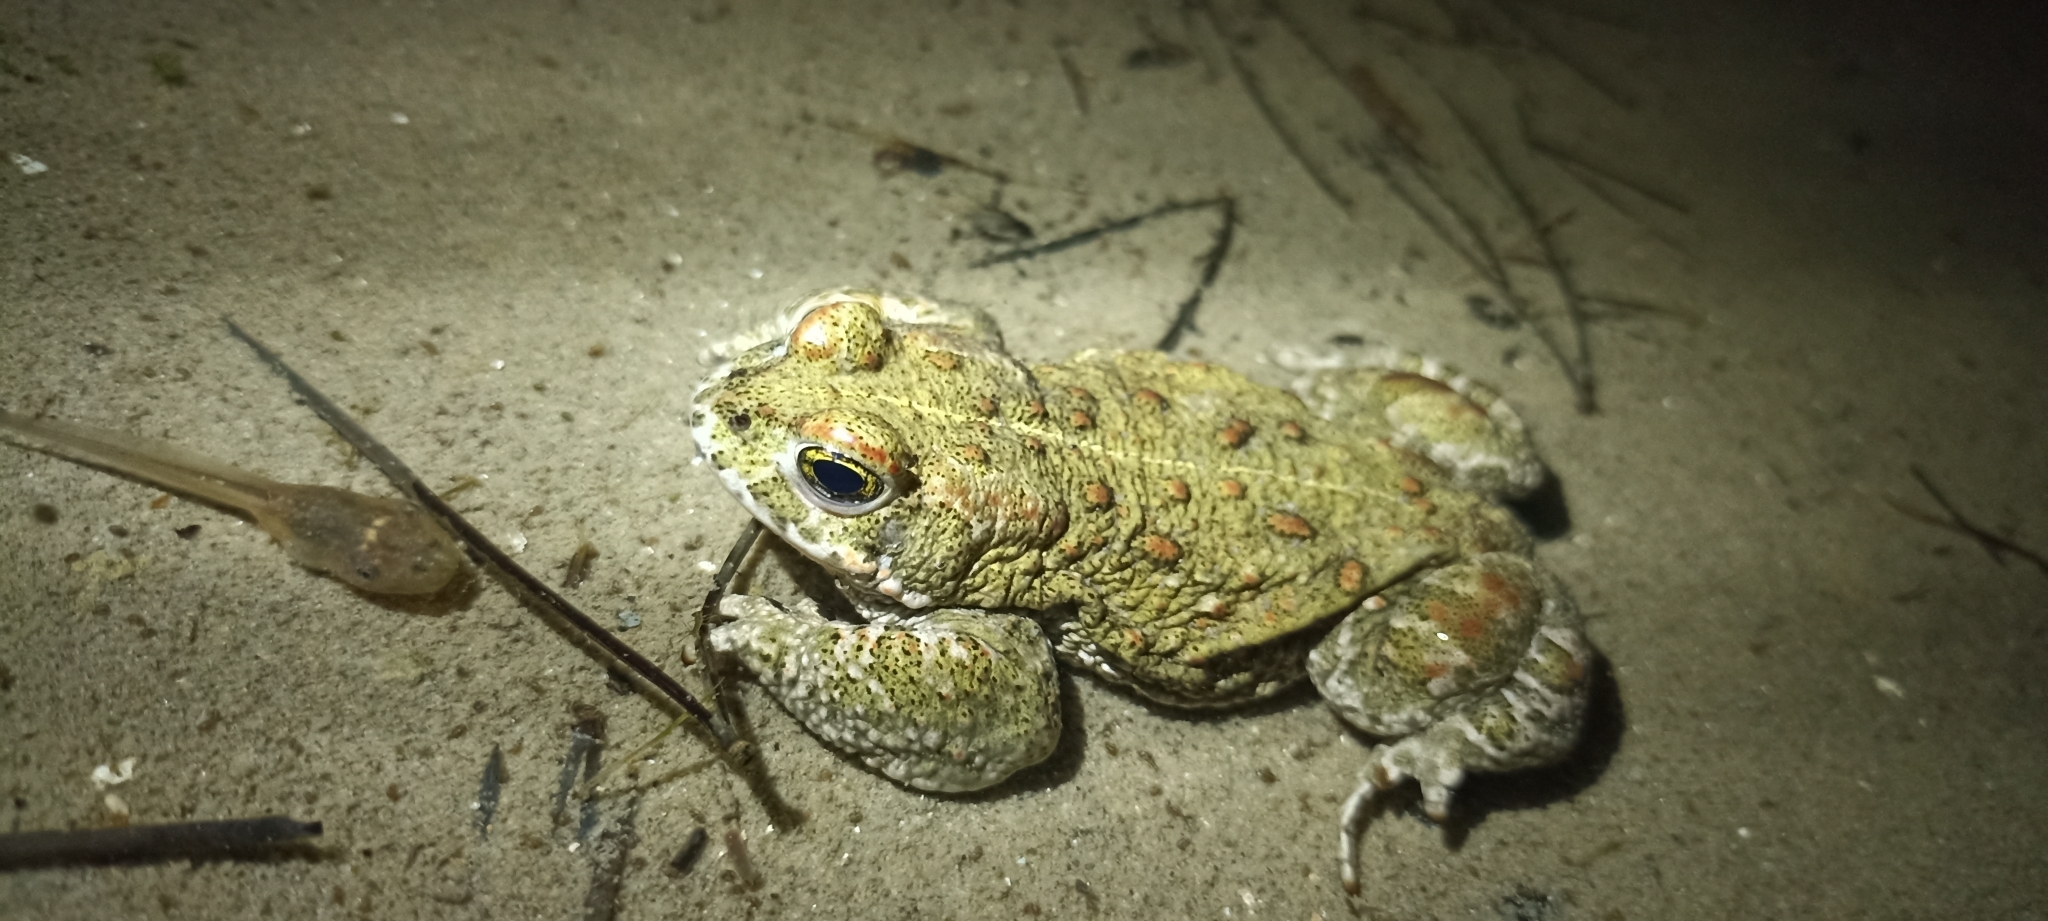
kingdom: Animalia
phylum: Chordata
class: Amphibia
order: Anura
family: Bufonidae
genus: Epidalea
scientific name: Epidalea calamita
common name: Natterjack toad
